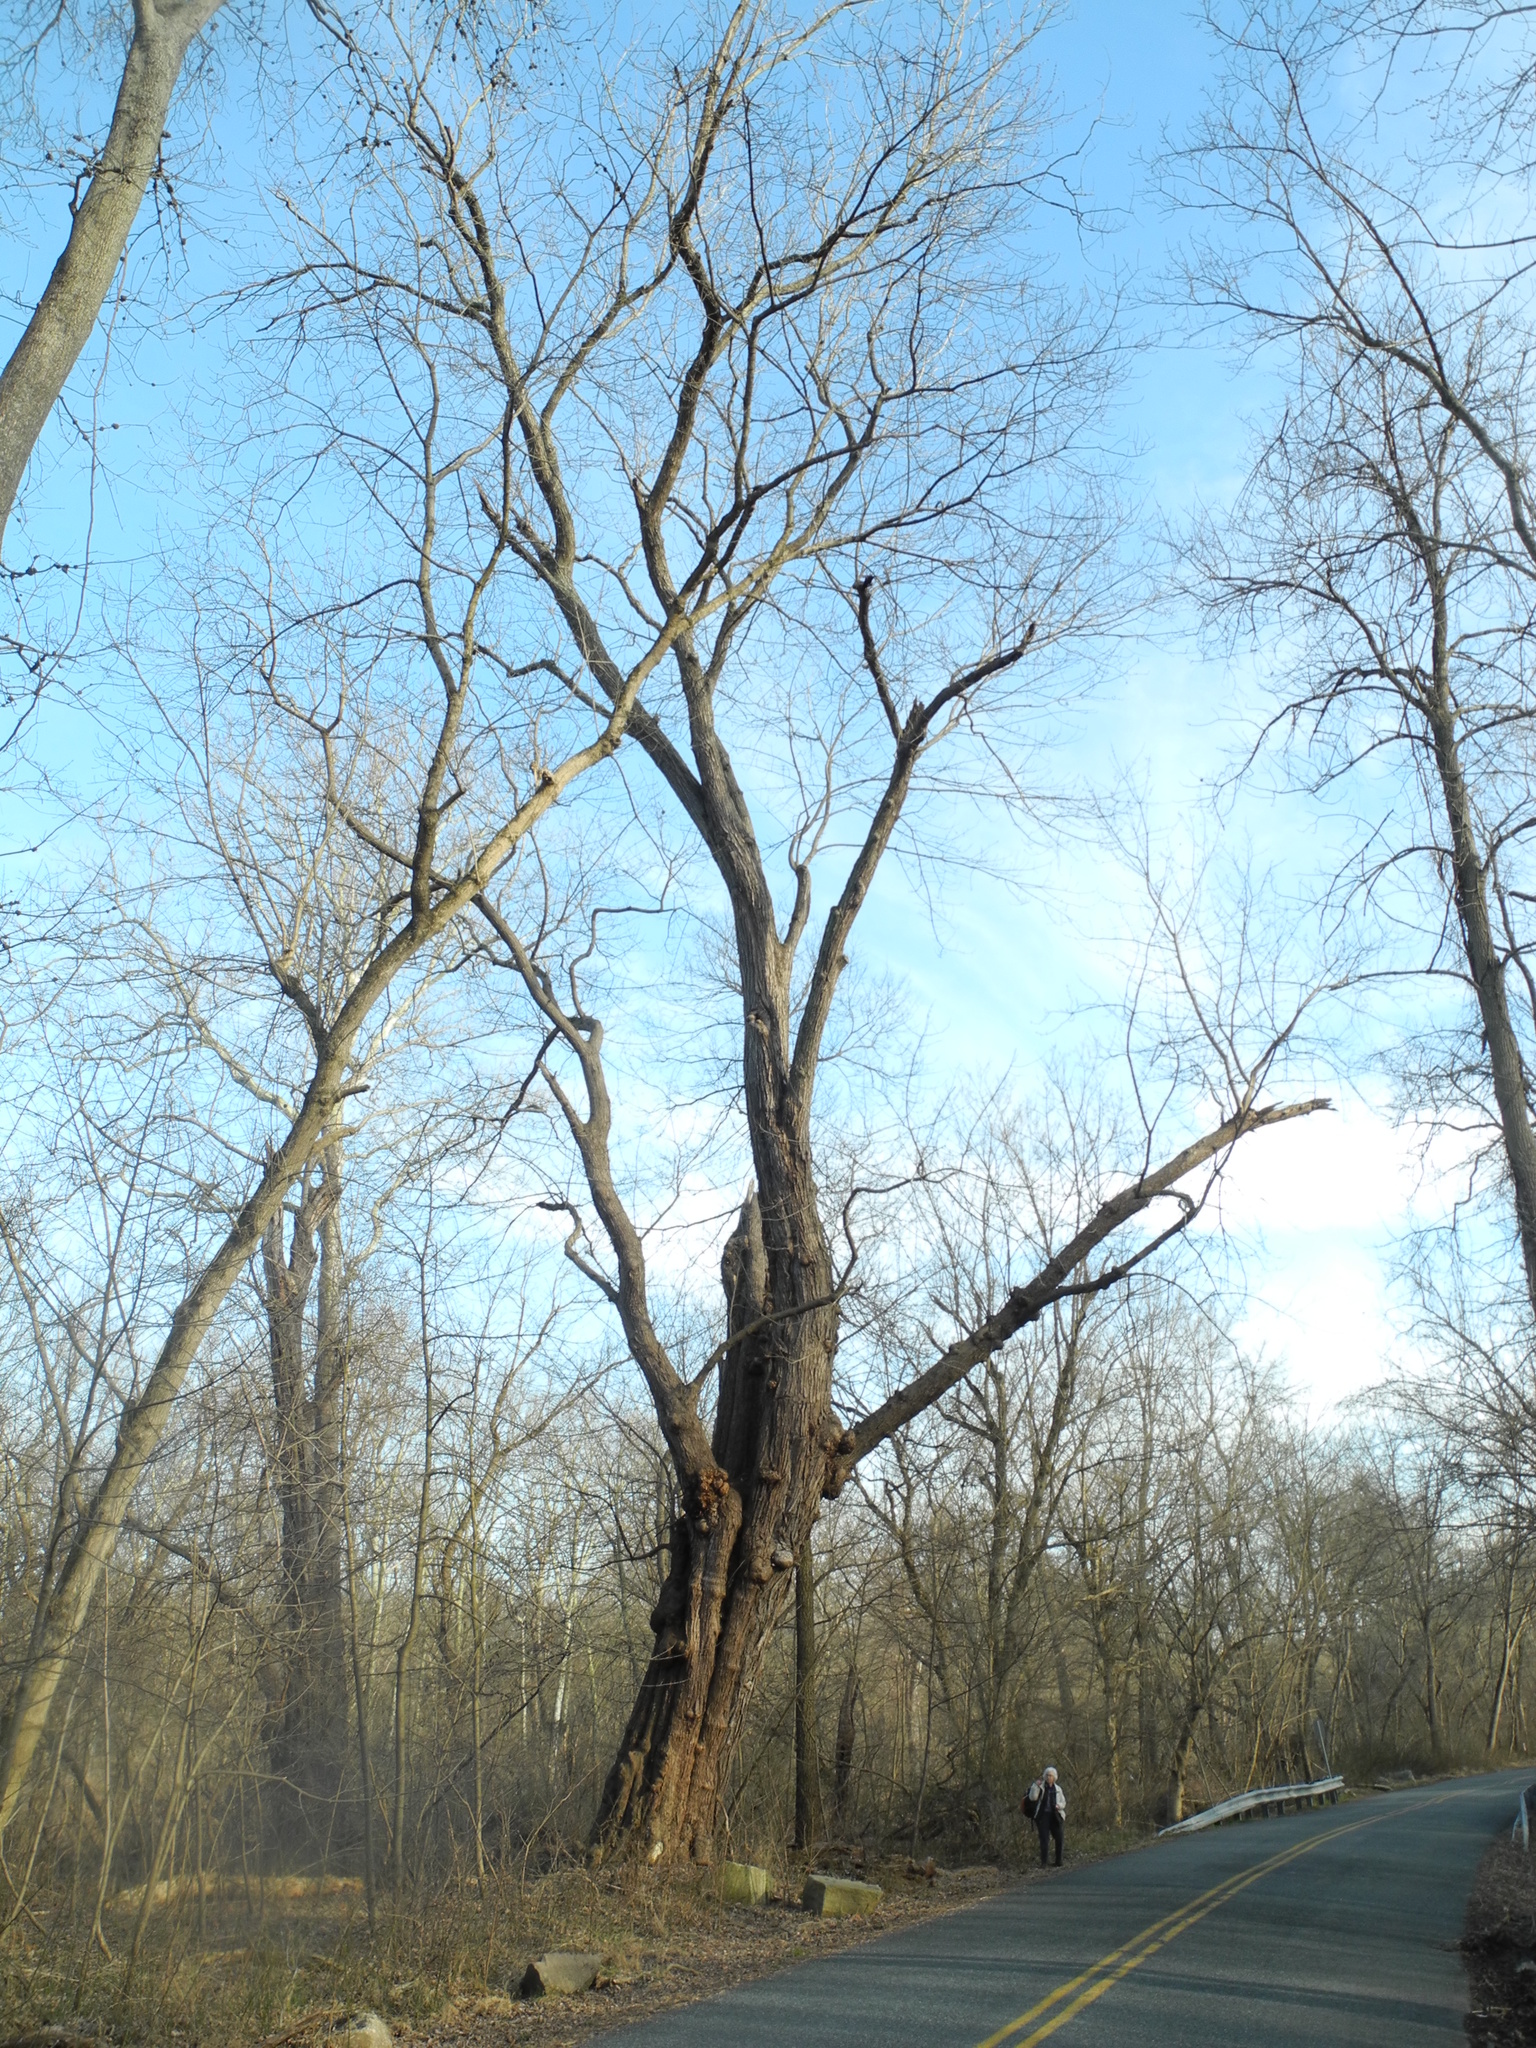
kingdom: Plantae
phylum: Tracheophyta
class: Magnoliopsida
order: Sapindales
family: Sapindaceae
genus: Acer
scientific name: Acer saccharinum
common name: Silver maple
